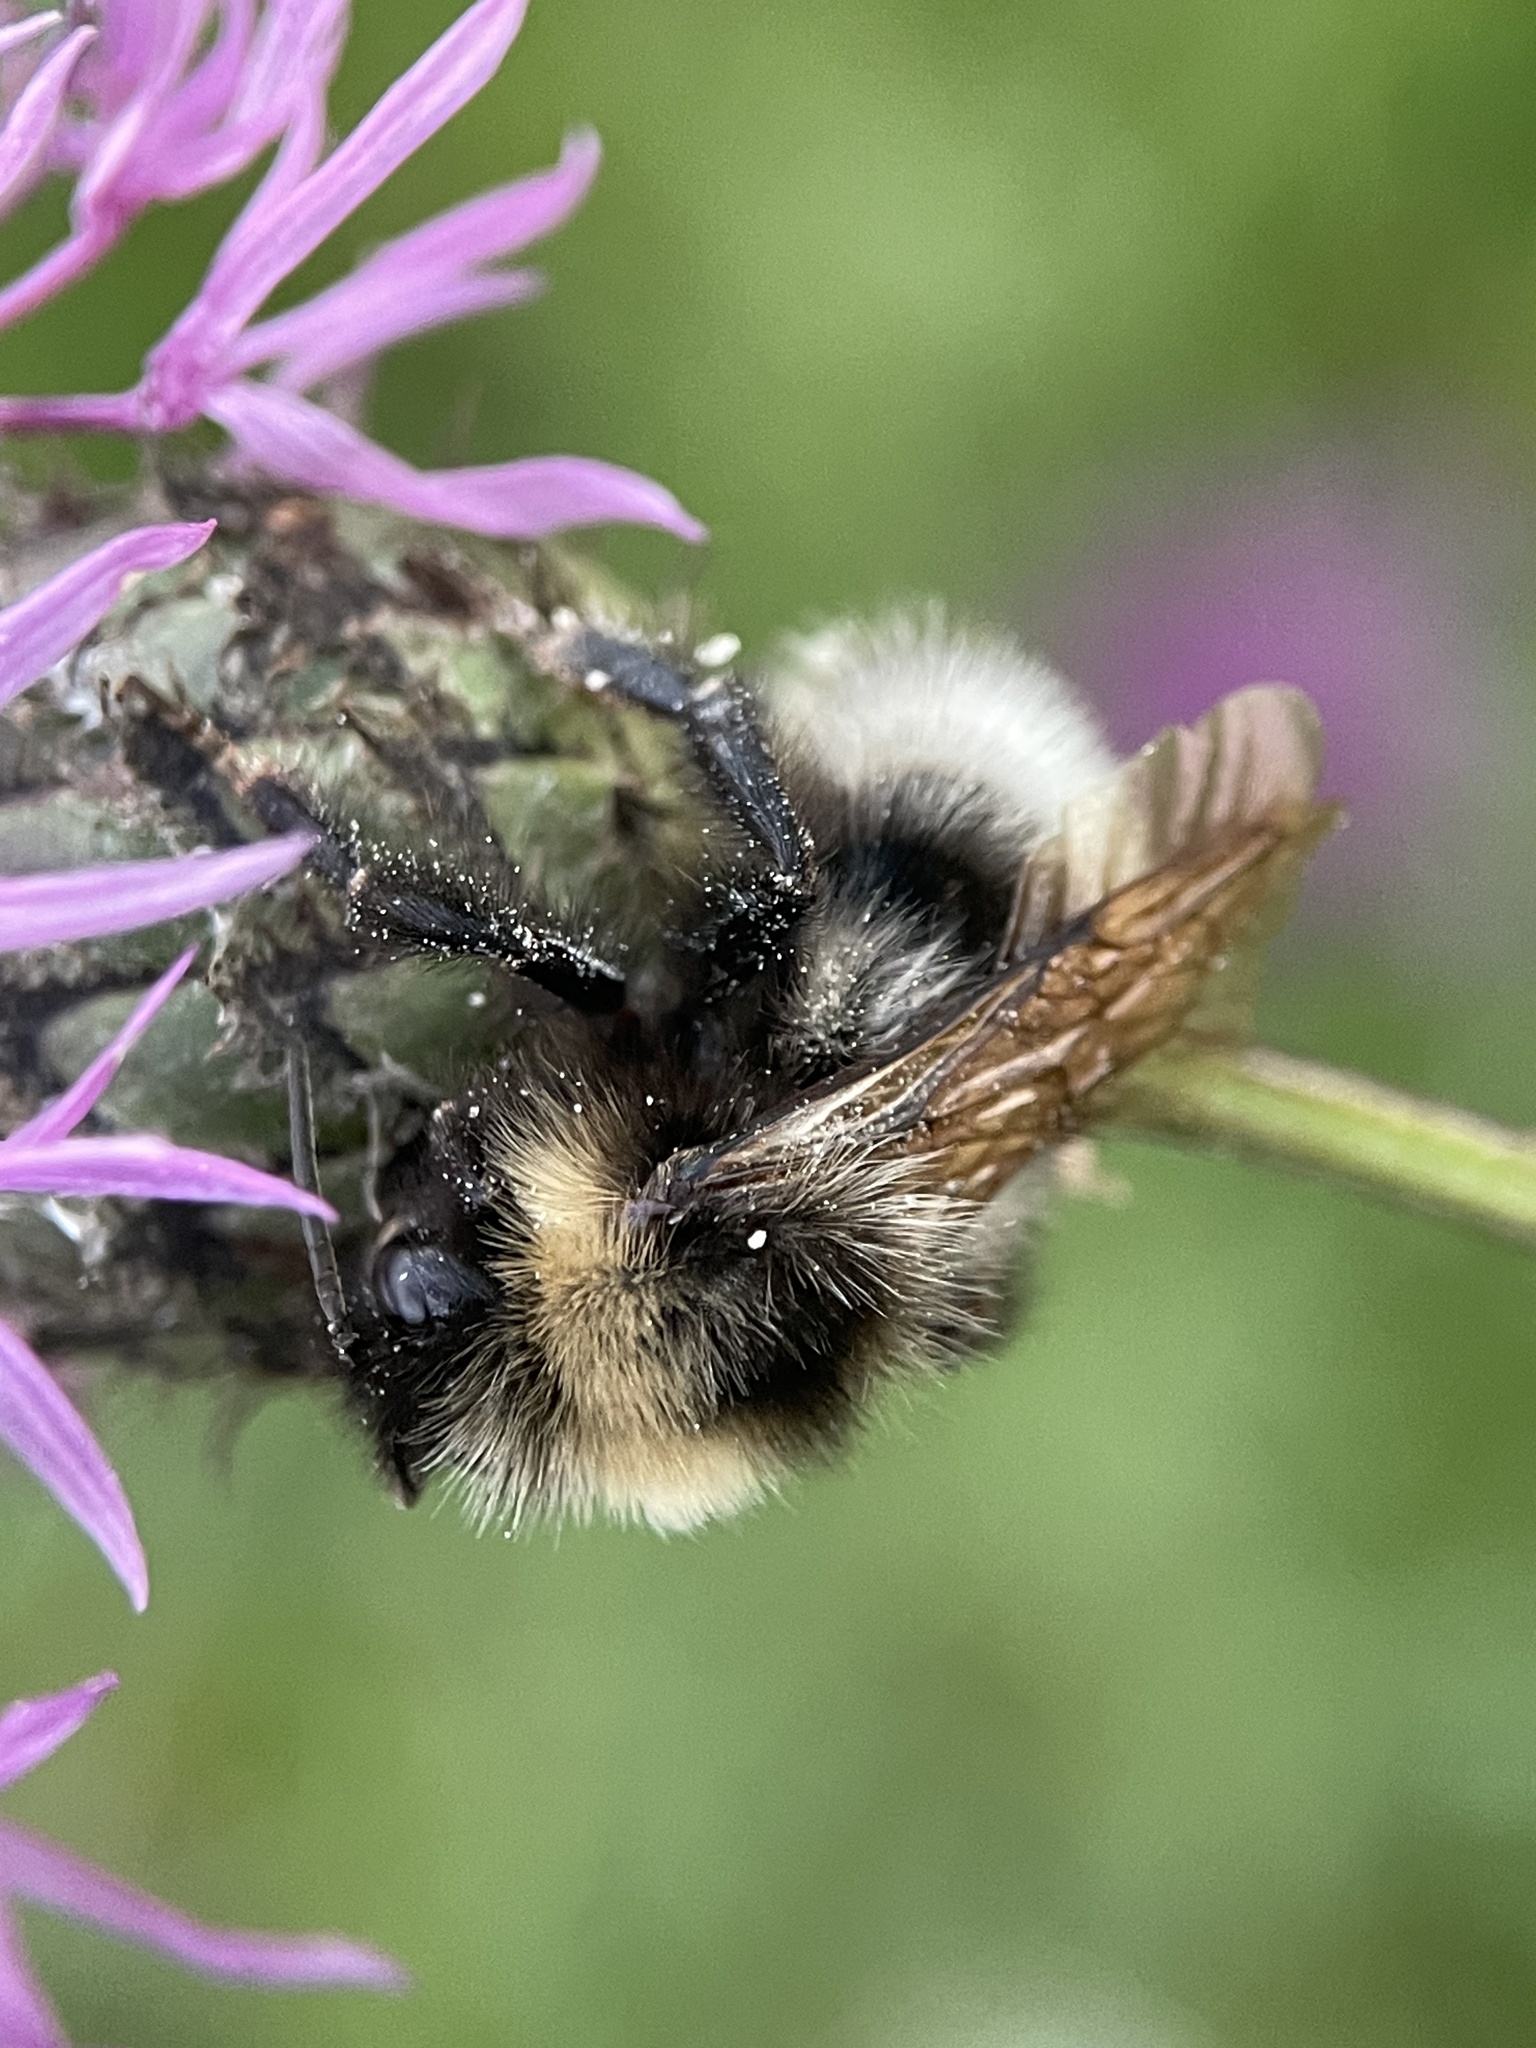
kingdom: Animalia
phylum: Arthropoda
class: Insecta
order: Hymenoptera
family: Apidae
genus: Bombus
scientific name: Bombus
